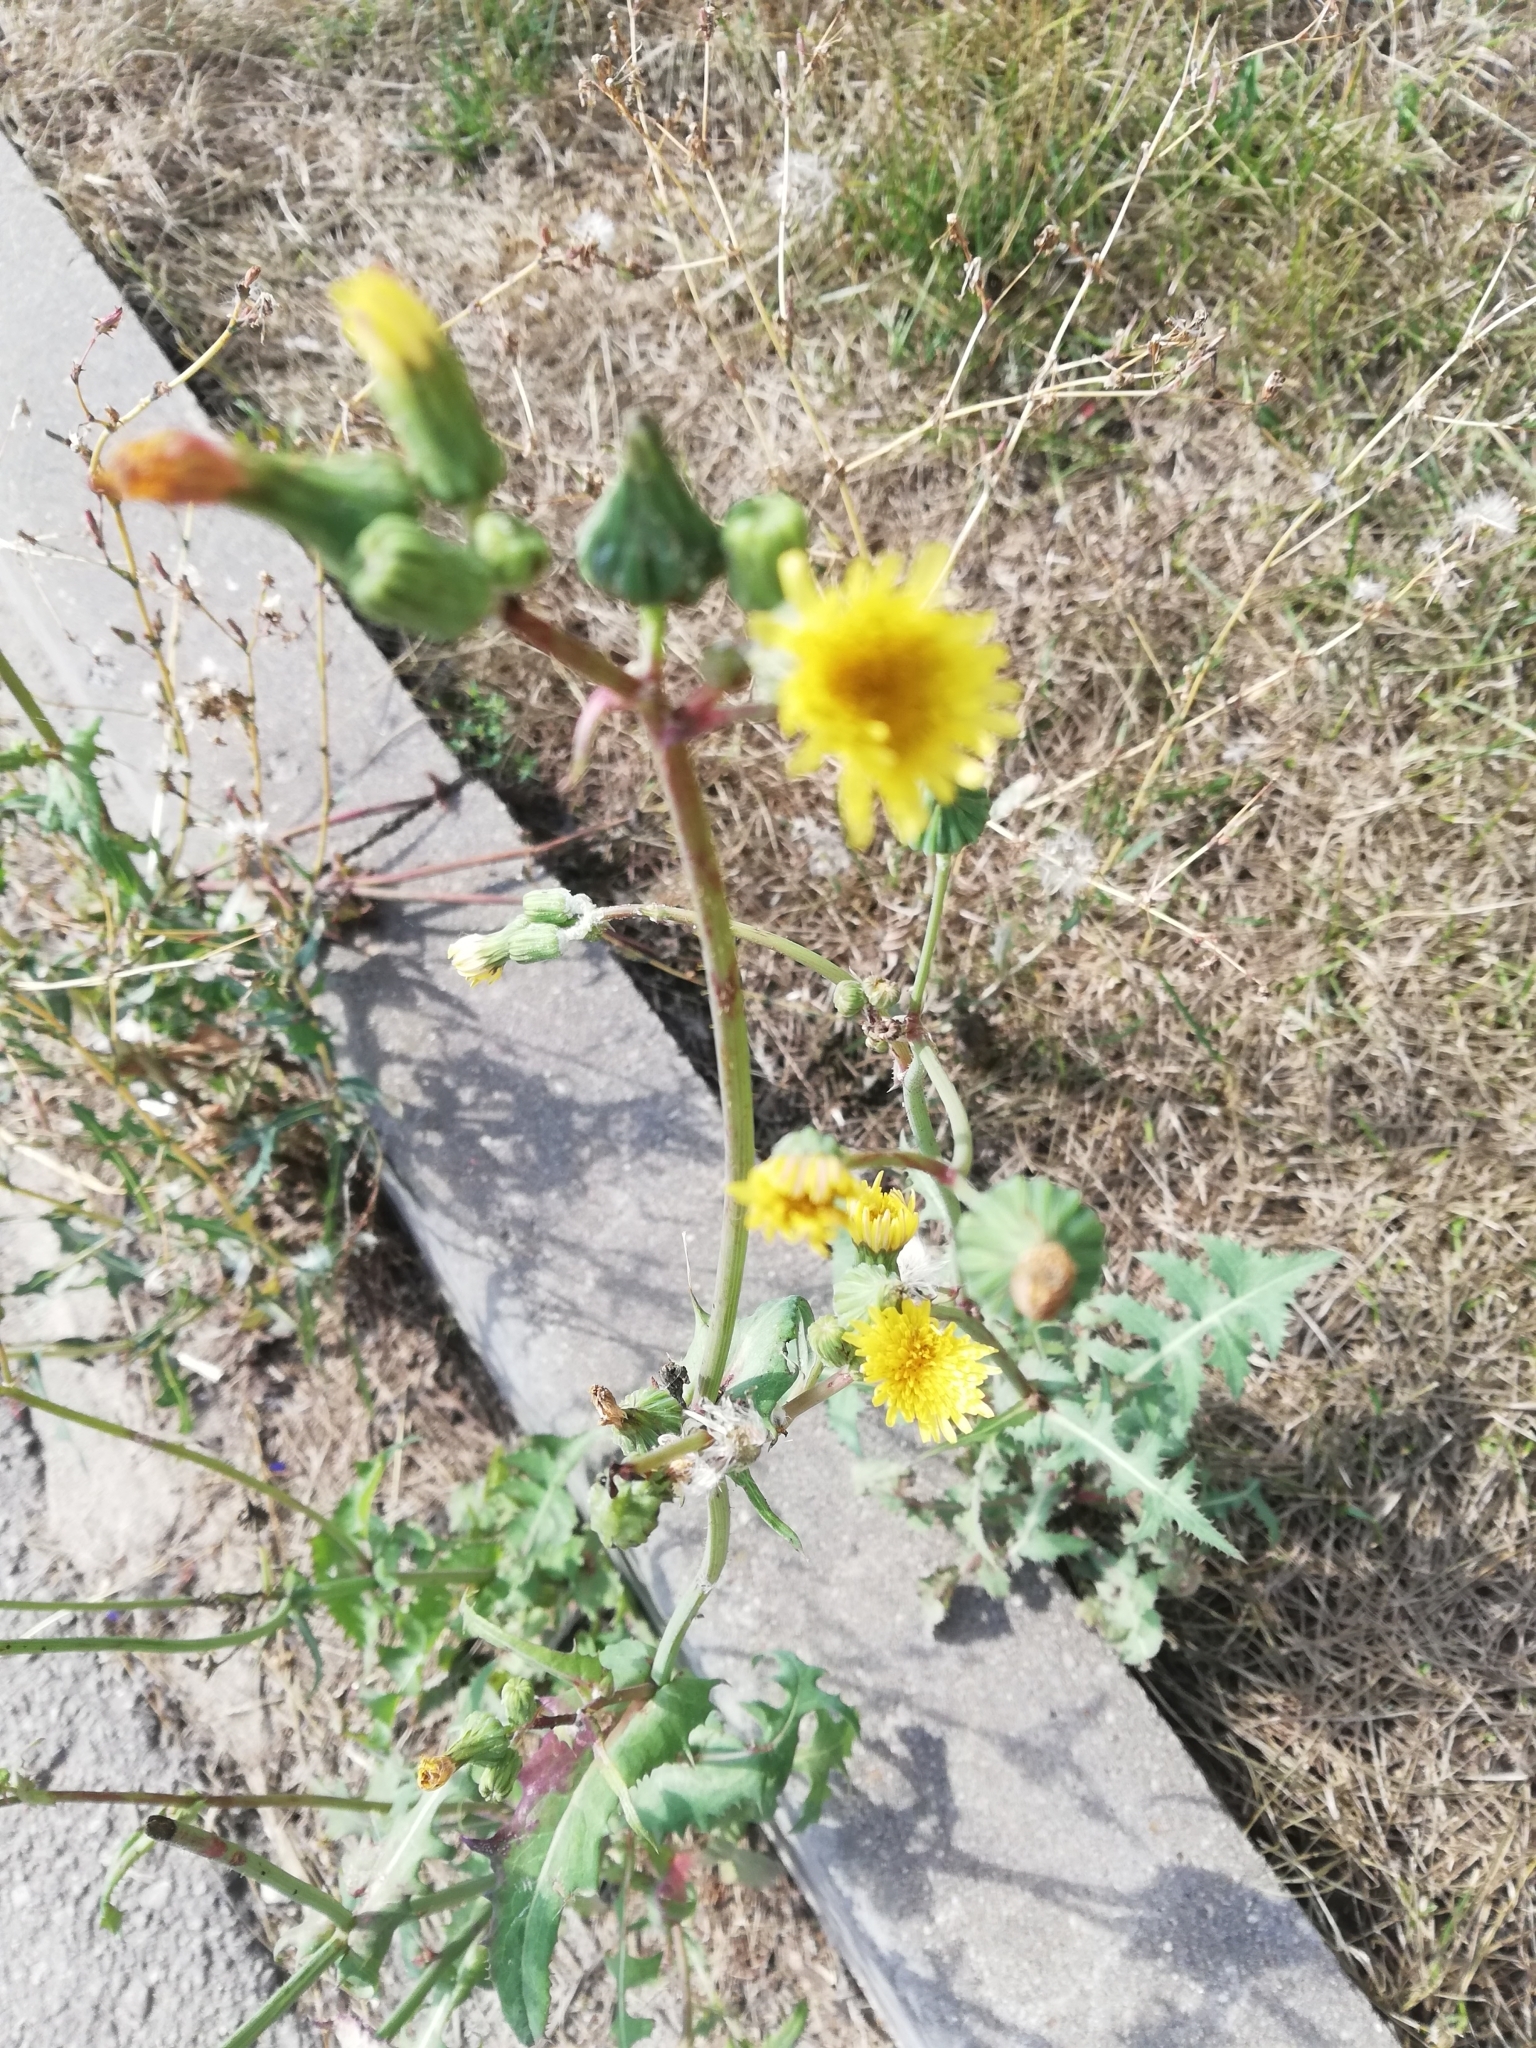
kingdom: Plantae
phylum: Tracheophyta
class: Magnoliopsida
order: Asterales
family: Asteraceae
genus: Sonchus
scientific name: Sonchus oleraceus
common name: Common sowthistle
